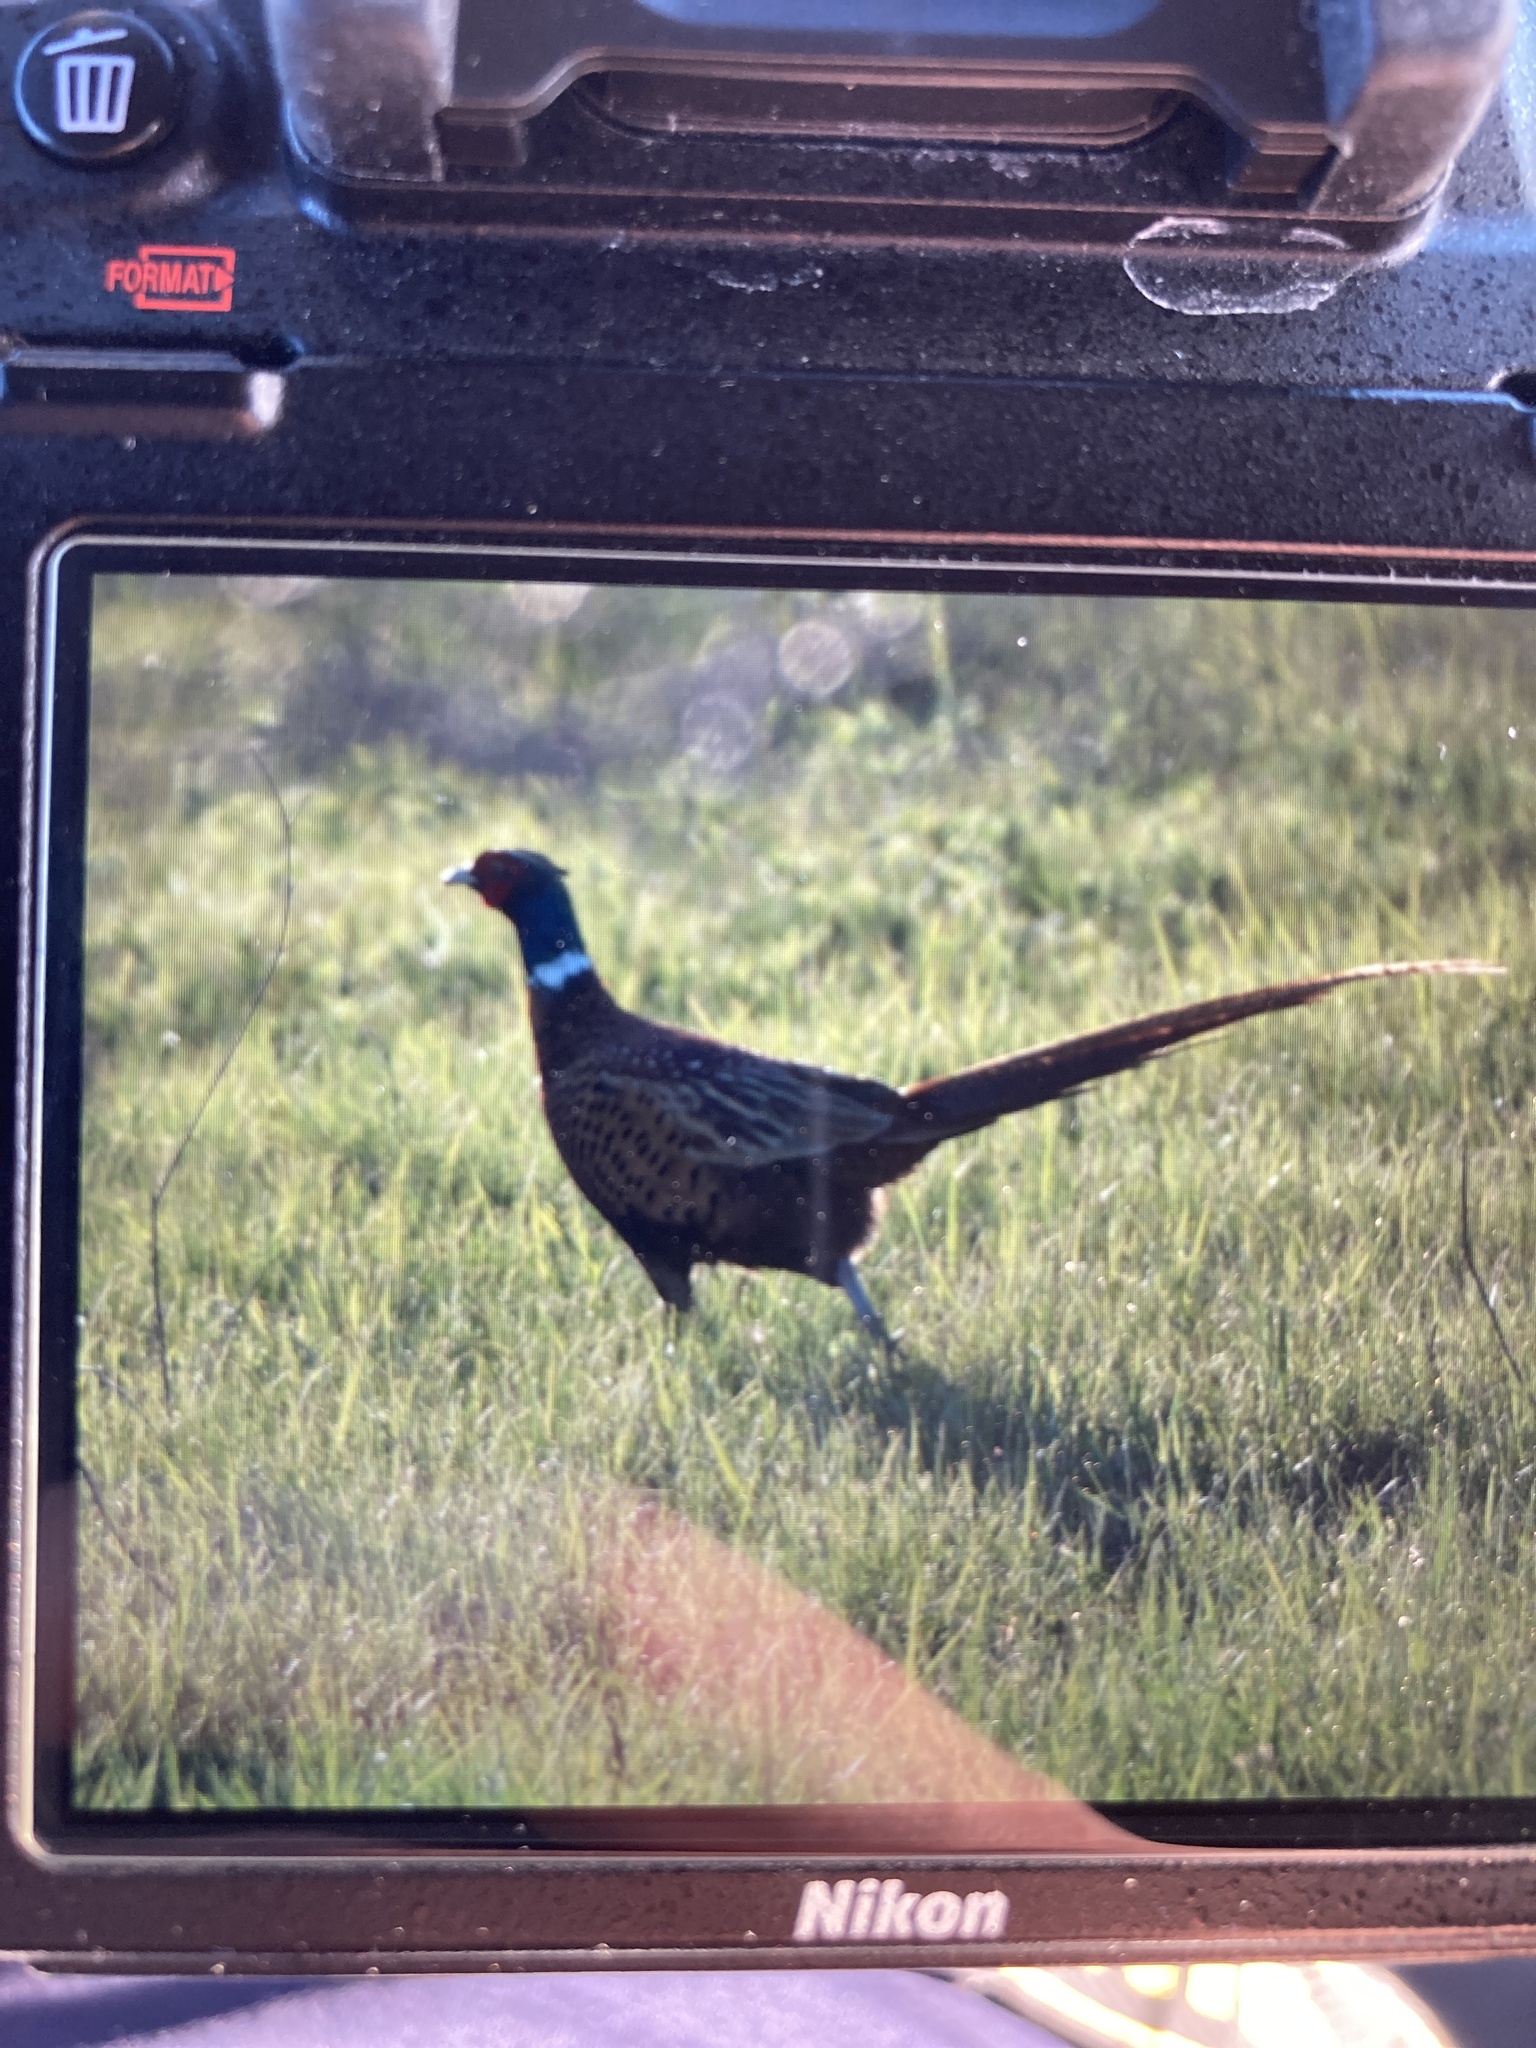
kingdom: Animalia
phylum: Chordata
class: Aves
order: Galliformes
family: Phasianidae
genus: Phasianus
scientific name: Phasianus colchicus
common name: Common pheasant
